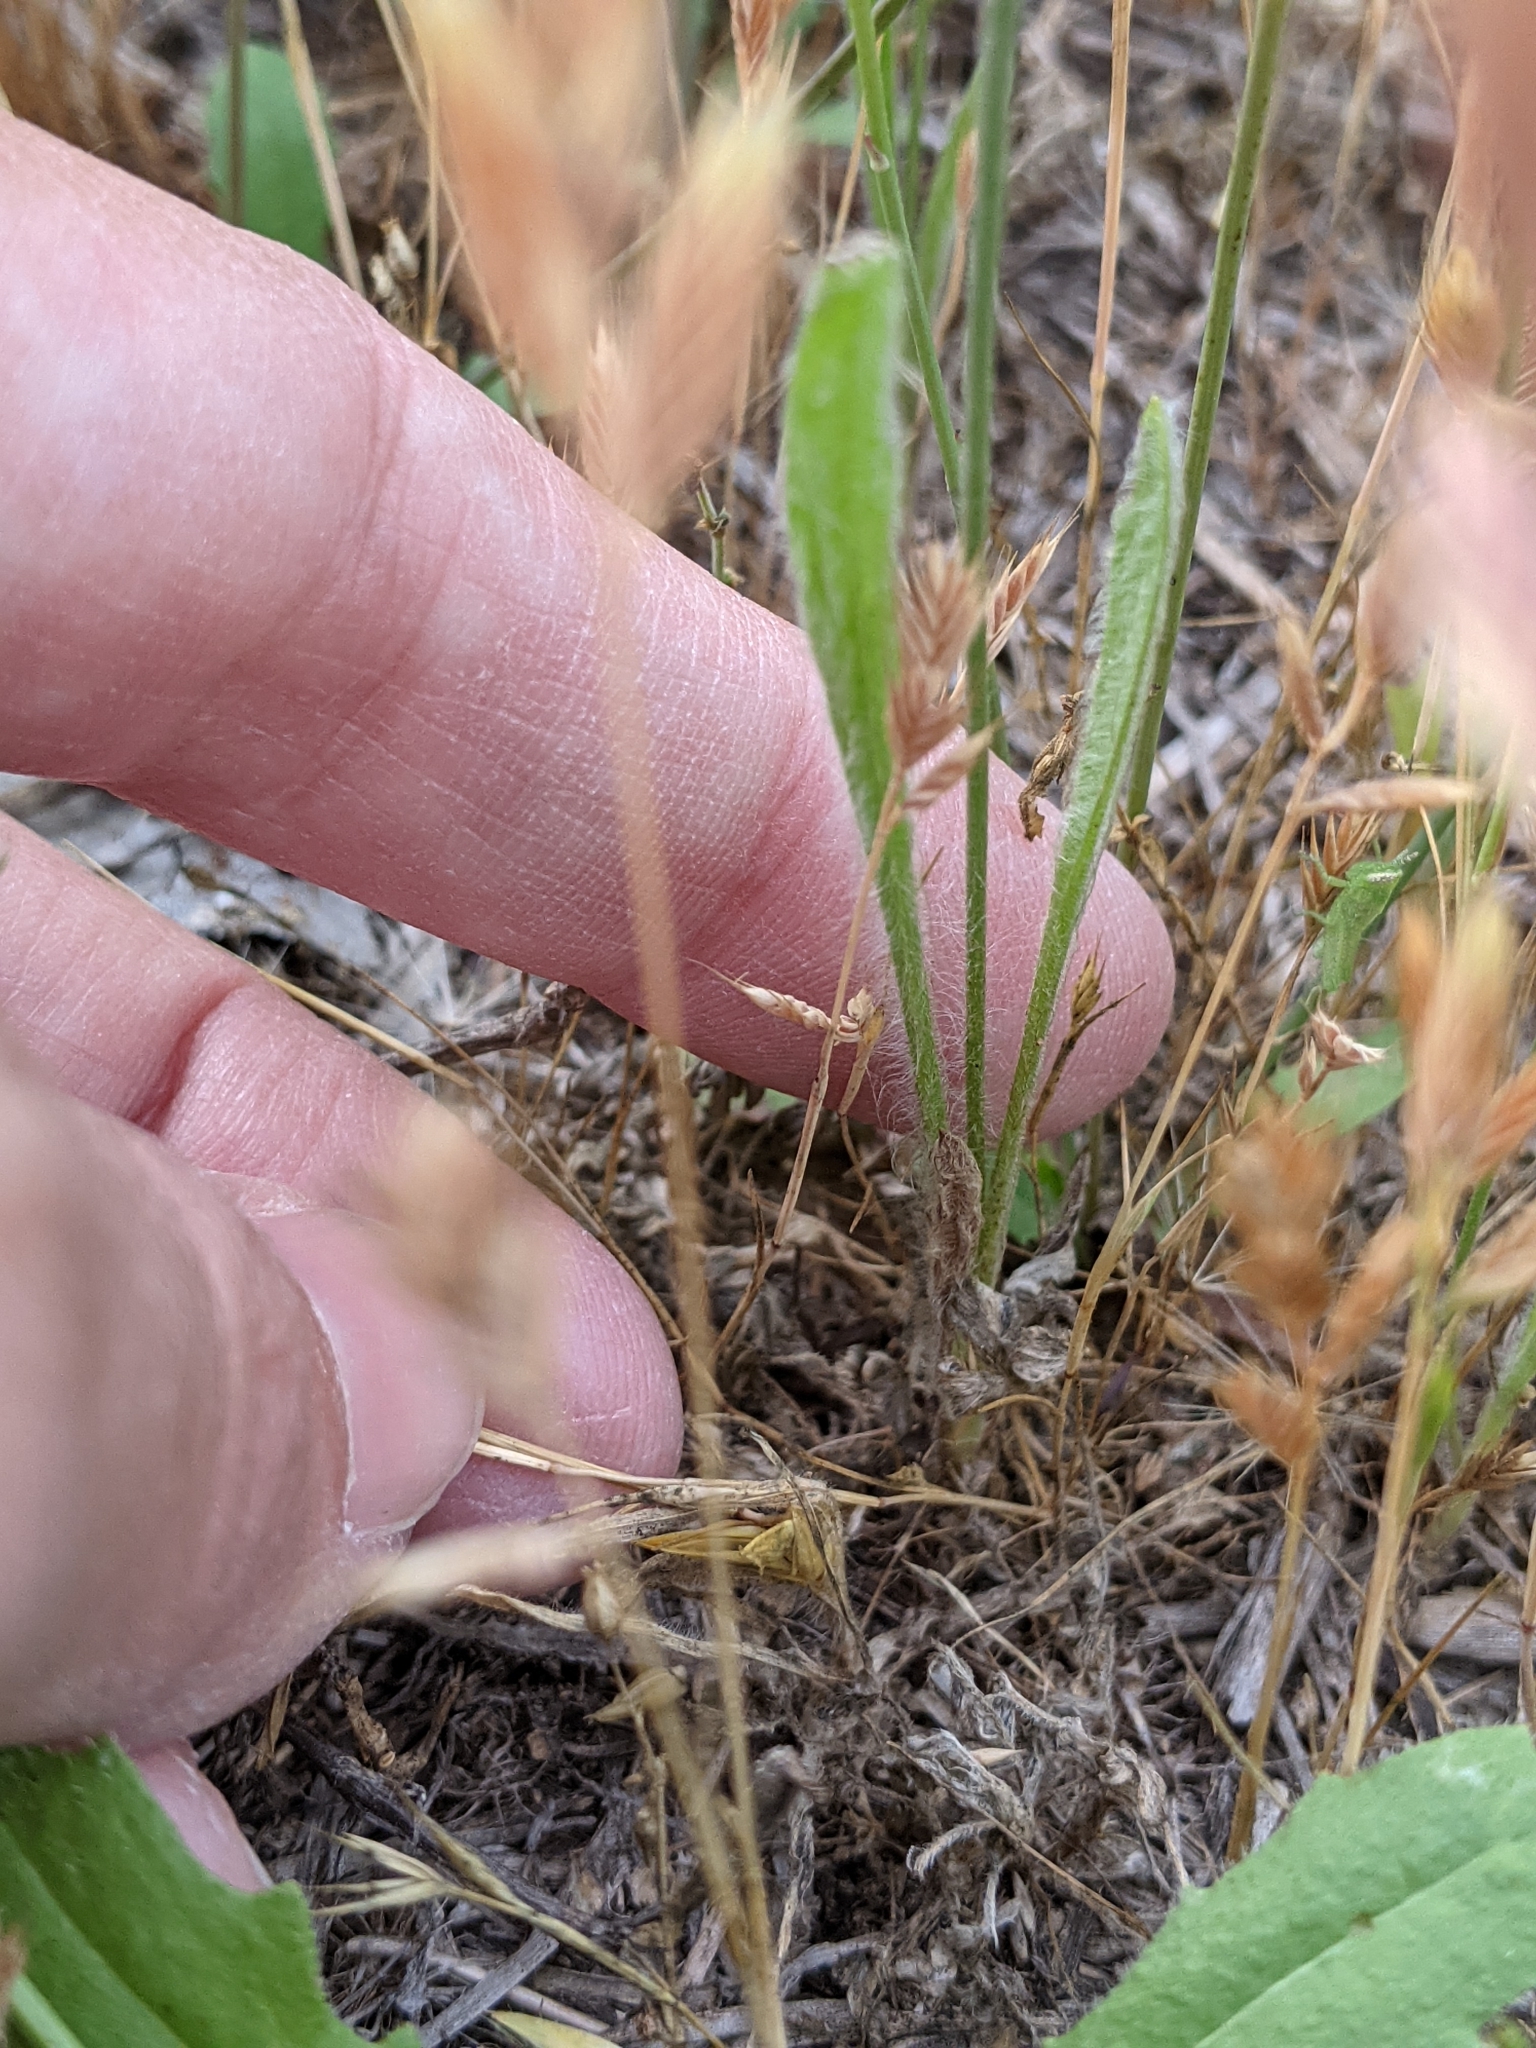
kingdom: Plantae
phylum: Tracheophyta
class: Magnoliopsida
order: Lamiales
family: Plantaginaceae
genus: Plantago
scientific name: Plantago helleri
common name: Heller's plantain
